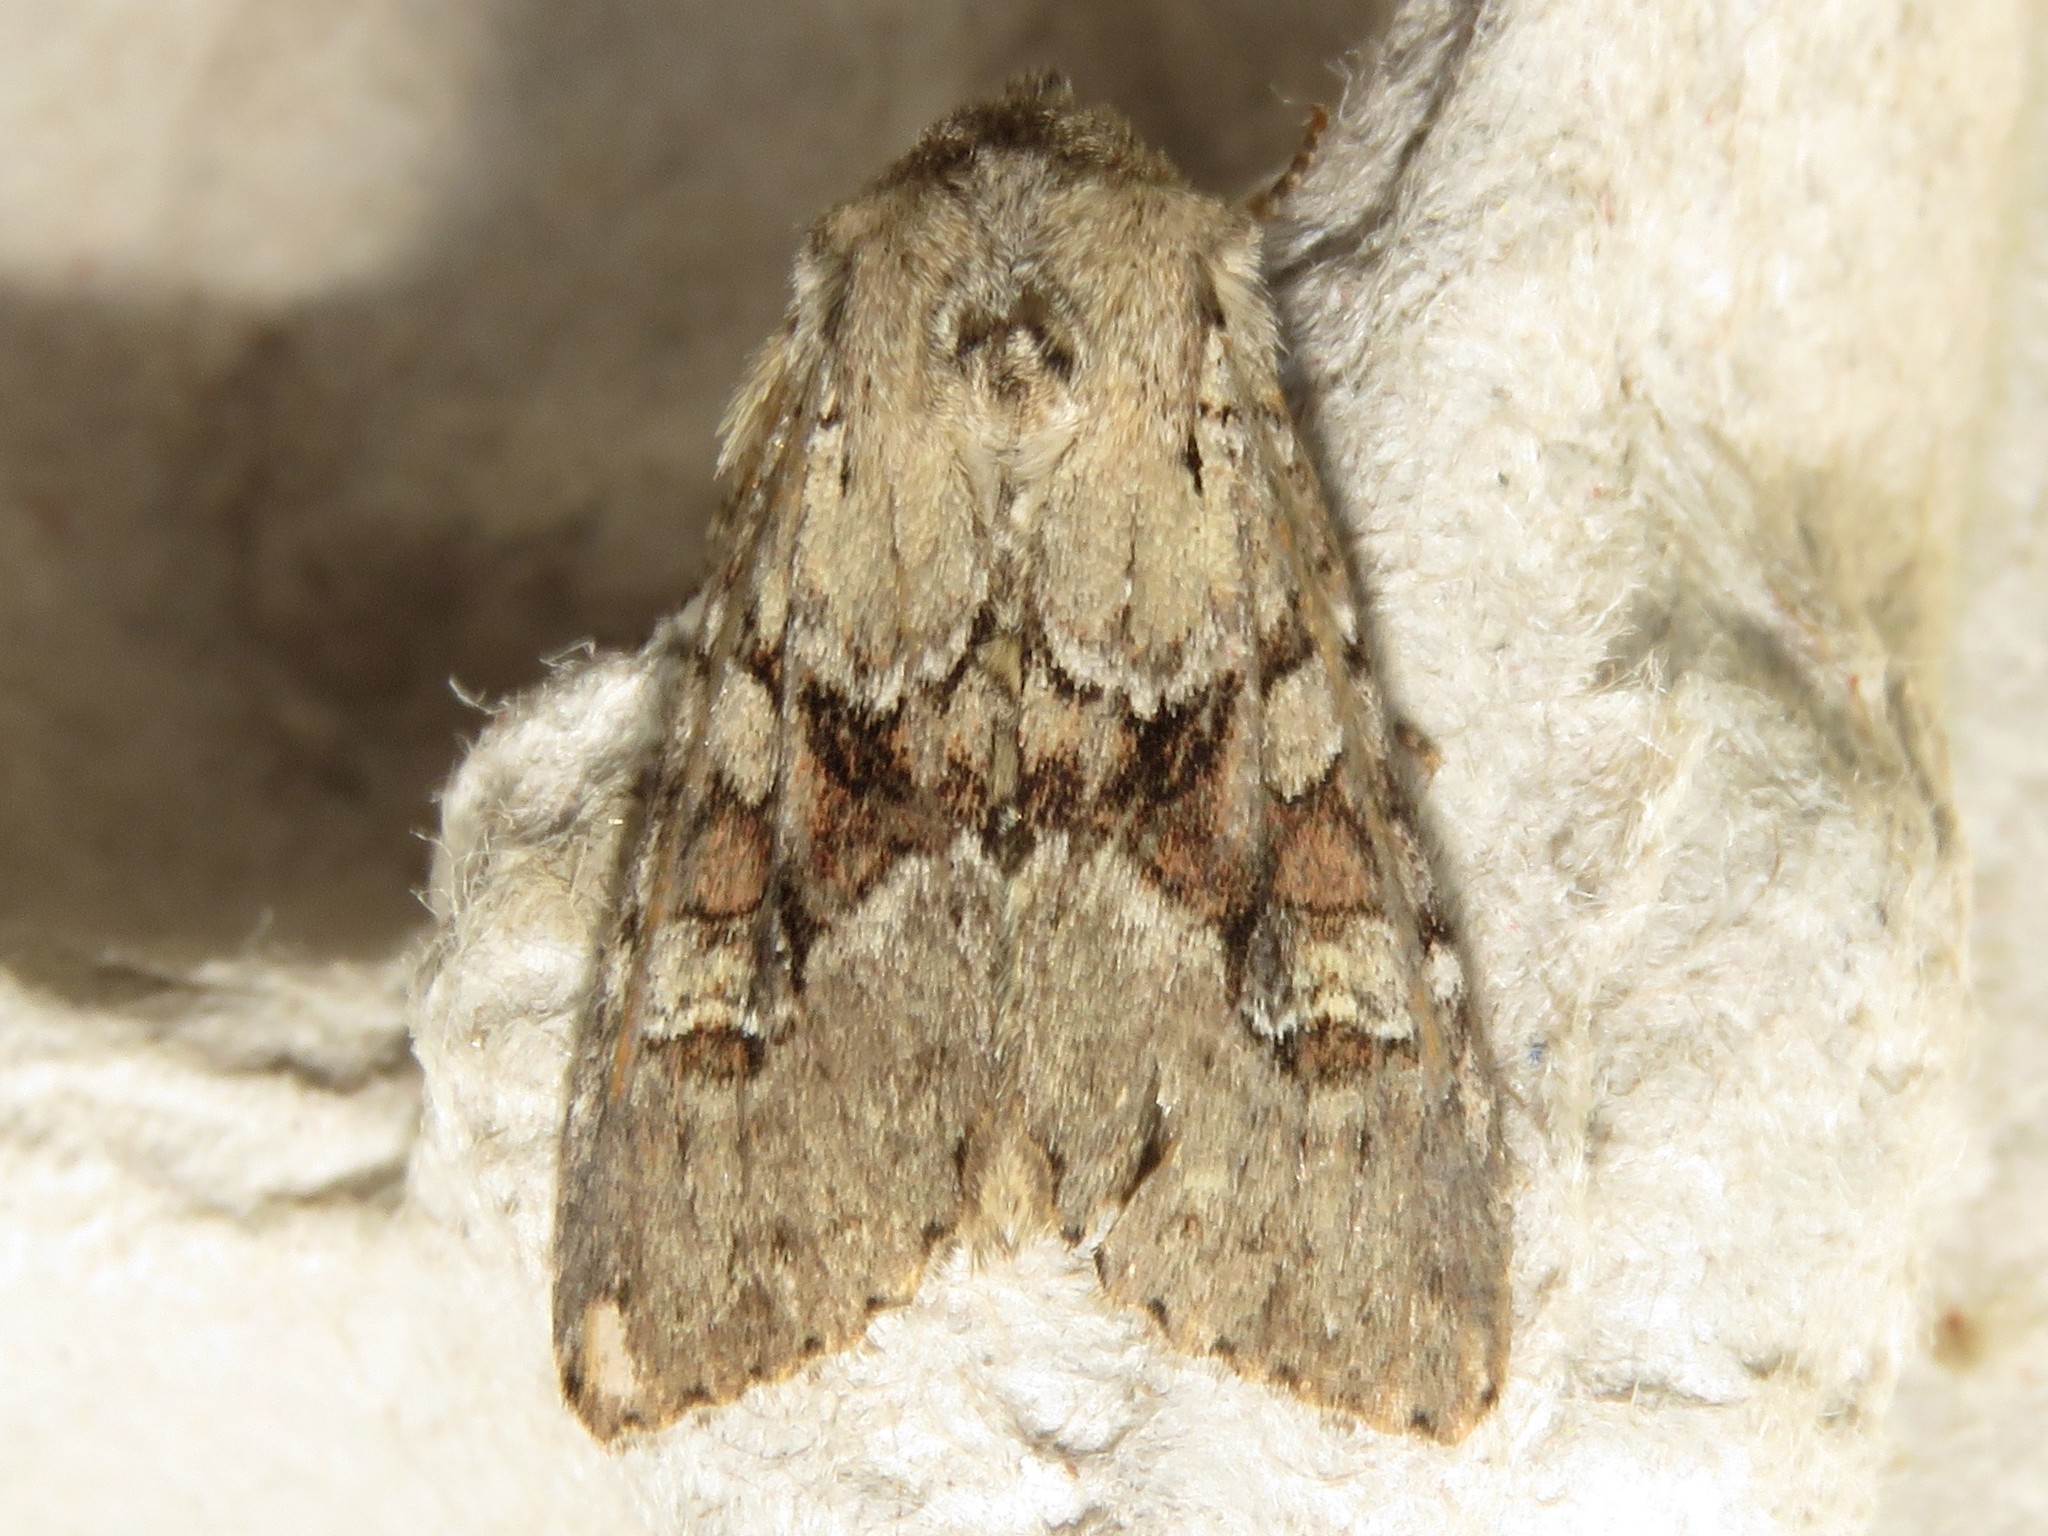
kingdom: Animalia
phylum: Arthropoda
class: Insecta
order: Lepidoptera
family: Noctuidae
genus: Apamea
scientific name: Apamea sordens
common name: Rustic shoulder-knot
